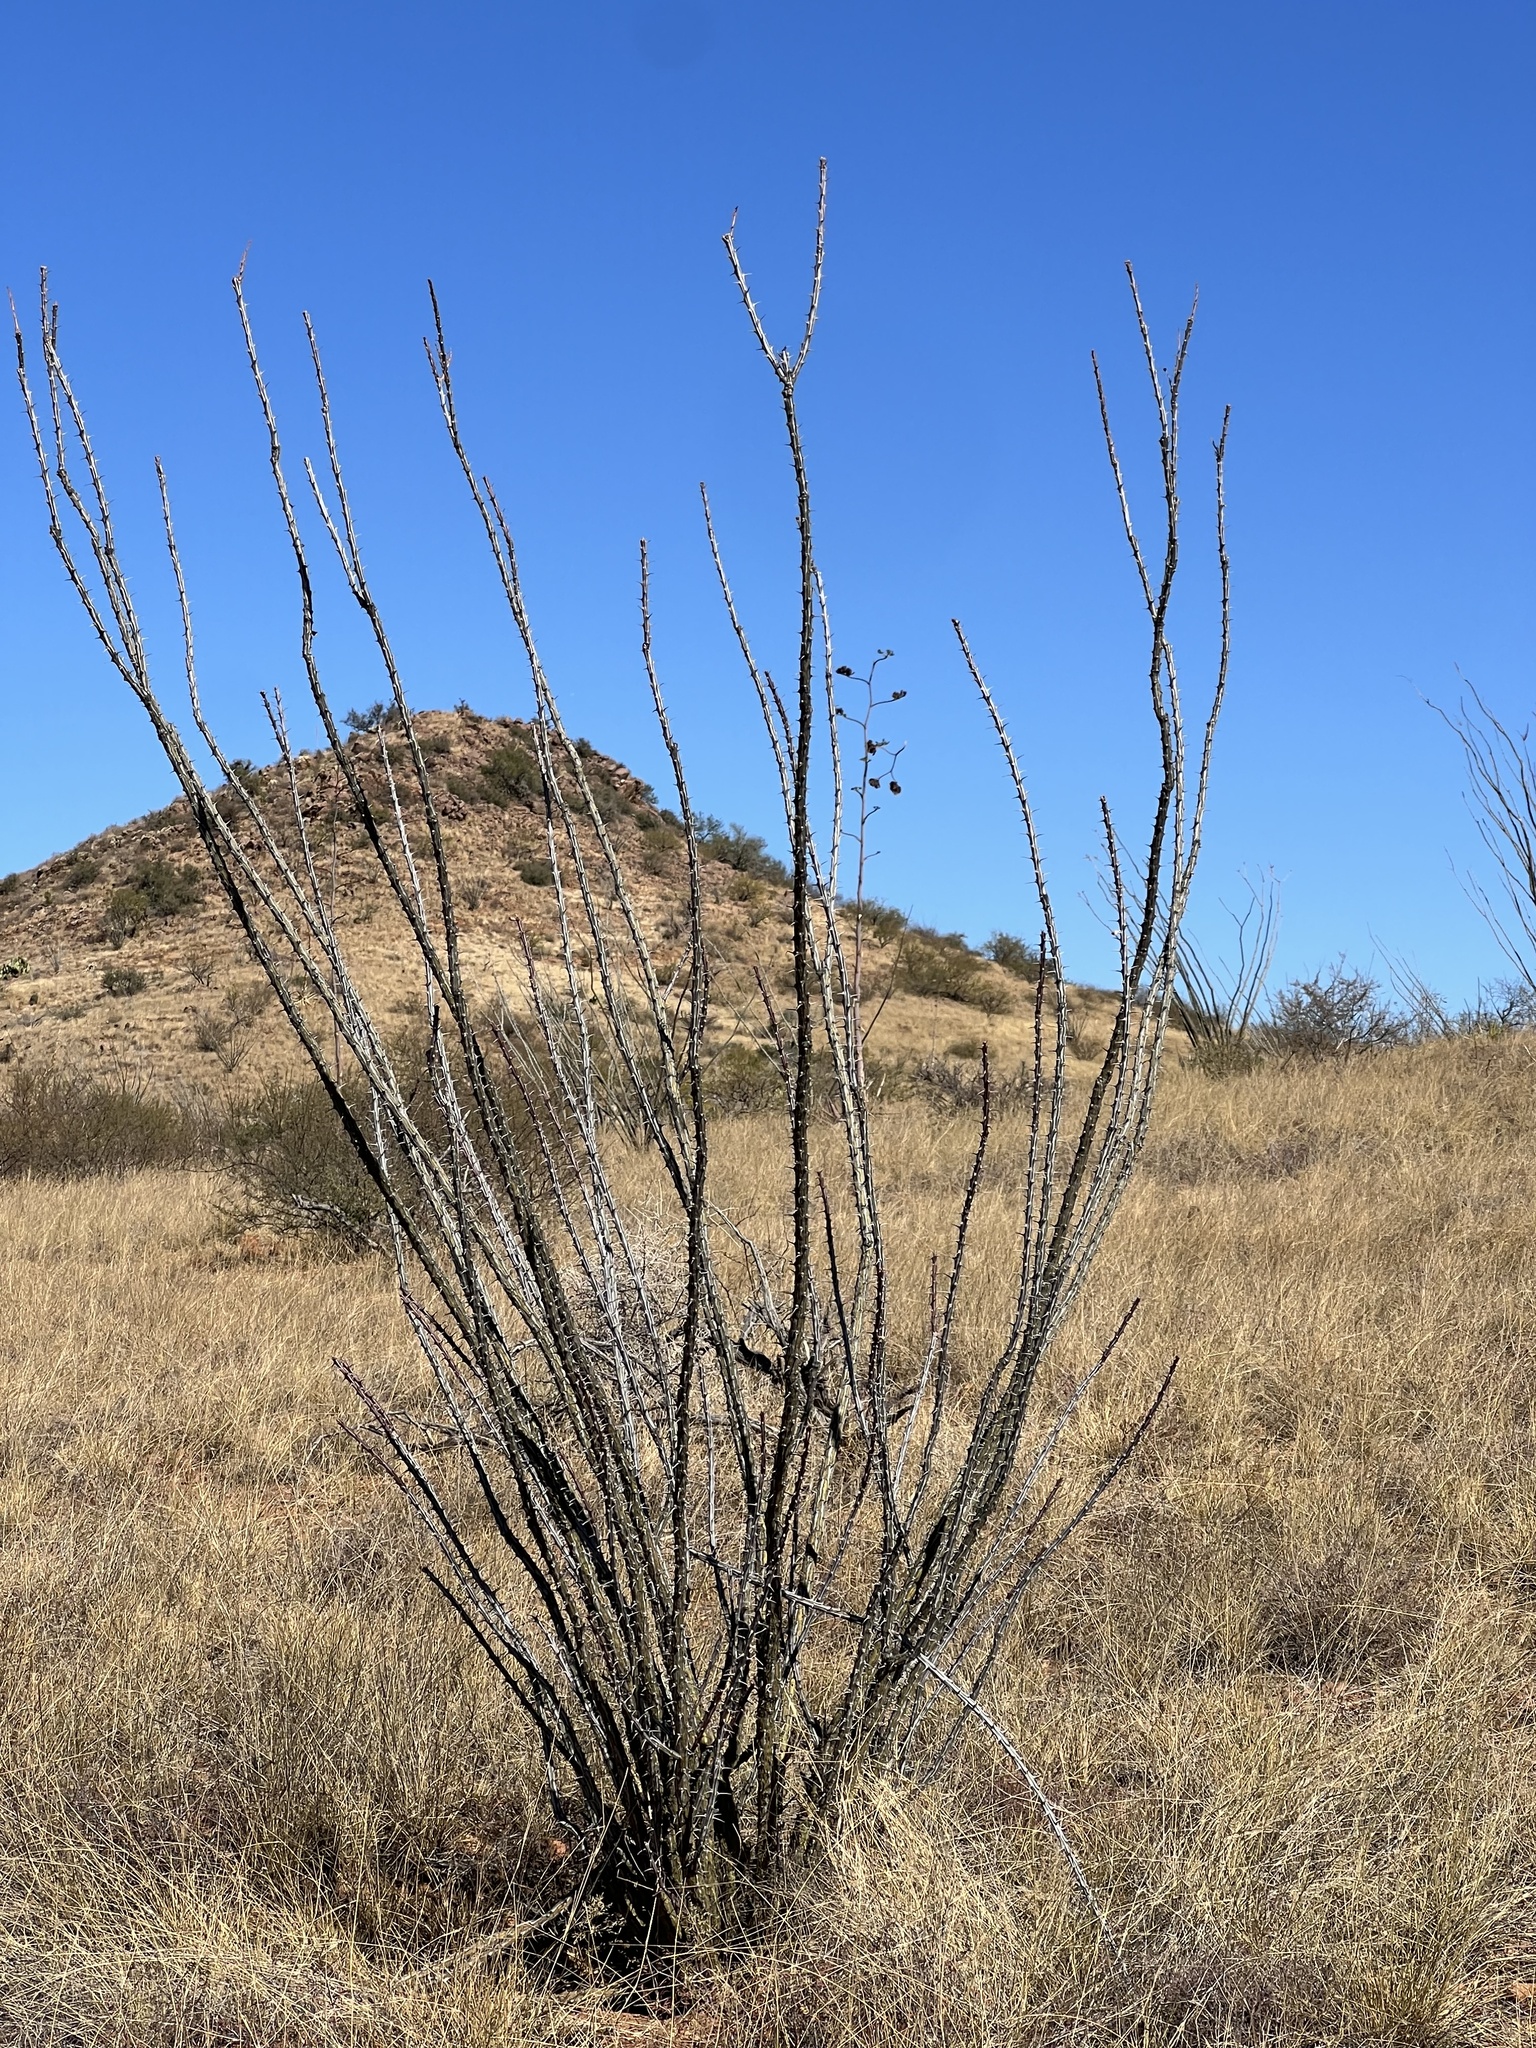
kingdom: Plantae
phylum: Tracheophyta
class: Magnoliopsida
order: Ericales
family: Fouquieriaceae
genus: Fouquieria
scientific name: Fouquieria splendens
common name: Vine-cactus
